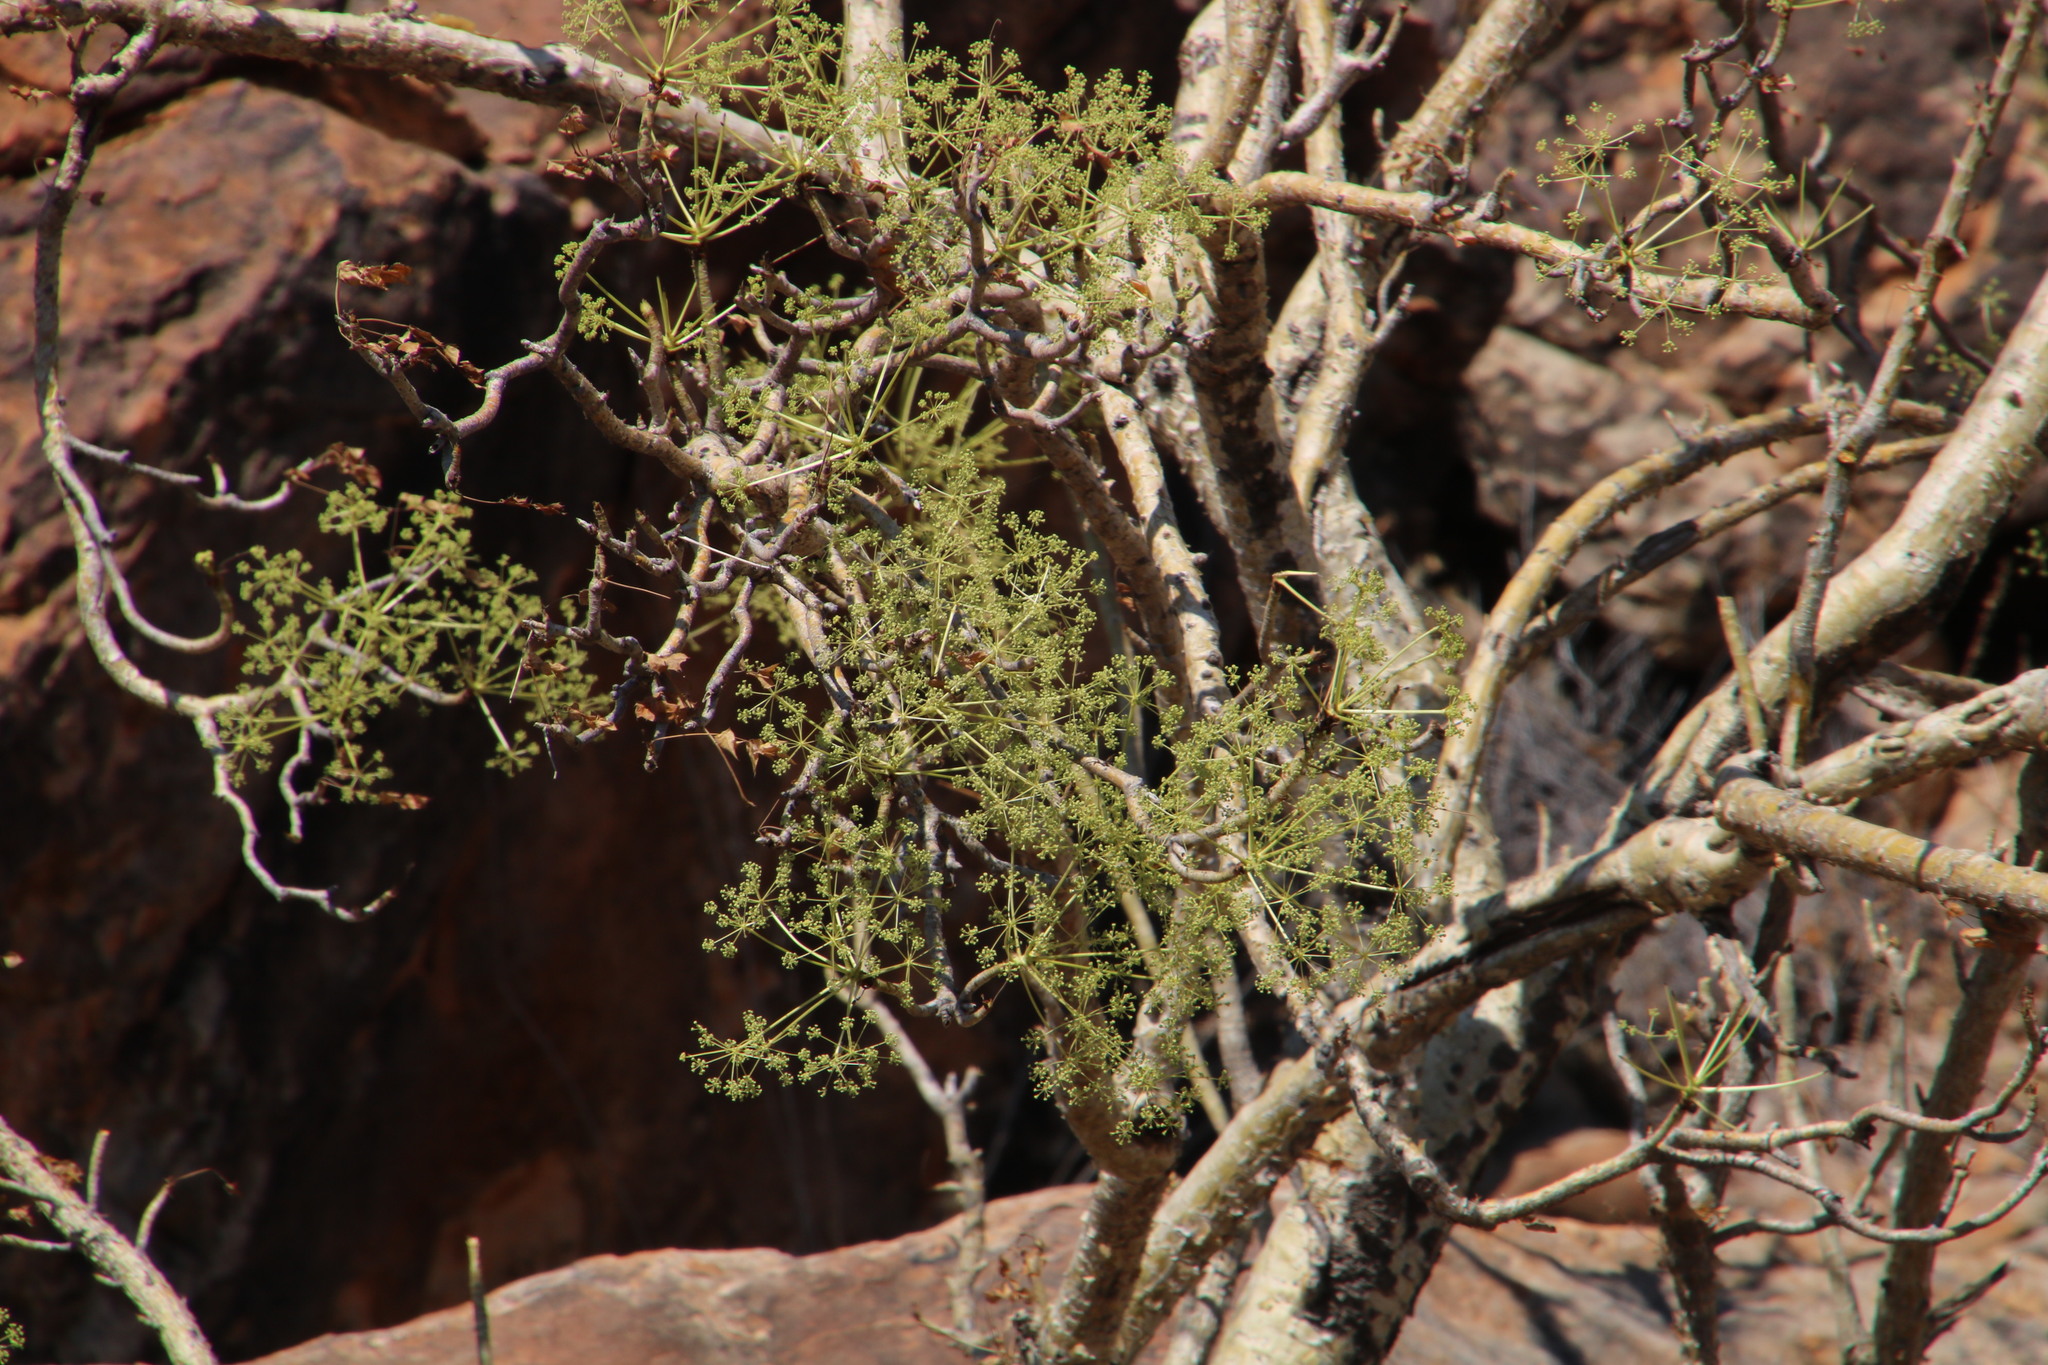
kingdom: Plantae
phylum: Tracheophyta
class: Magnoliopsida
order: Apiales
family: Apiaceae
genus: Steganotaenia
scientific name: Steganotaenia araliacea
